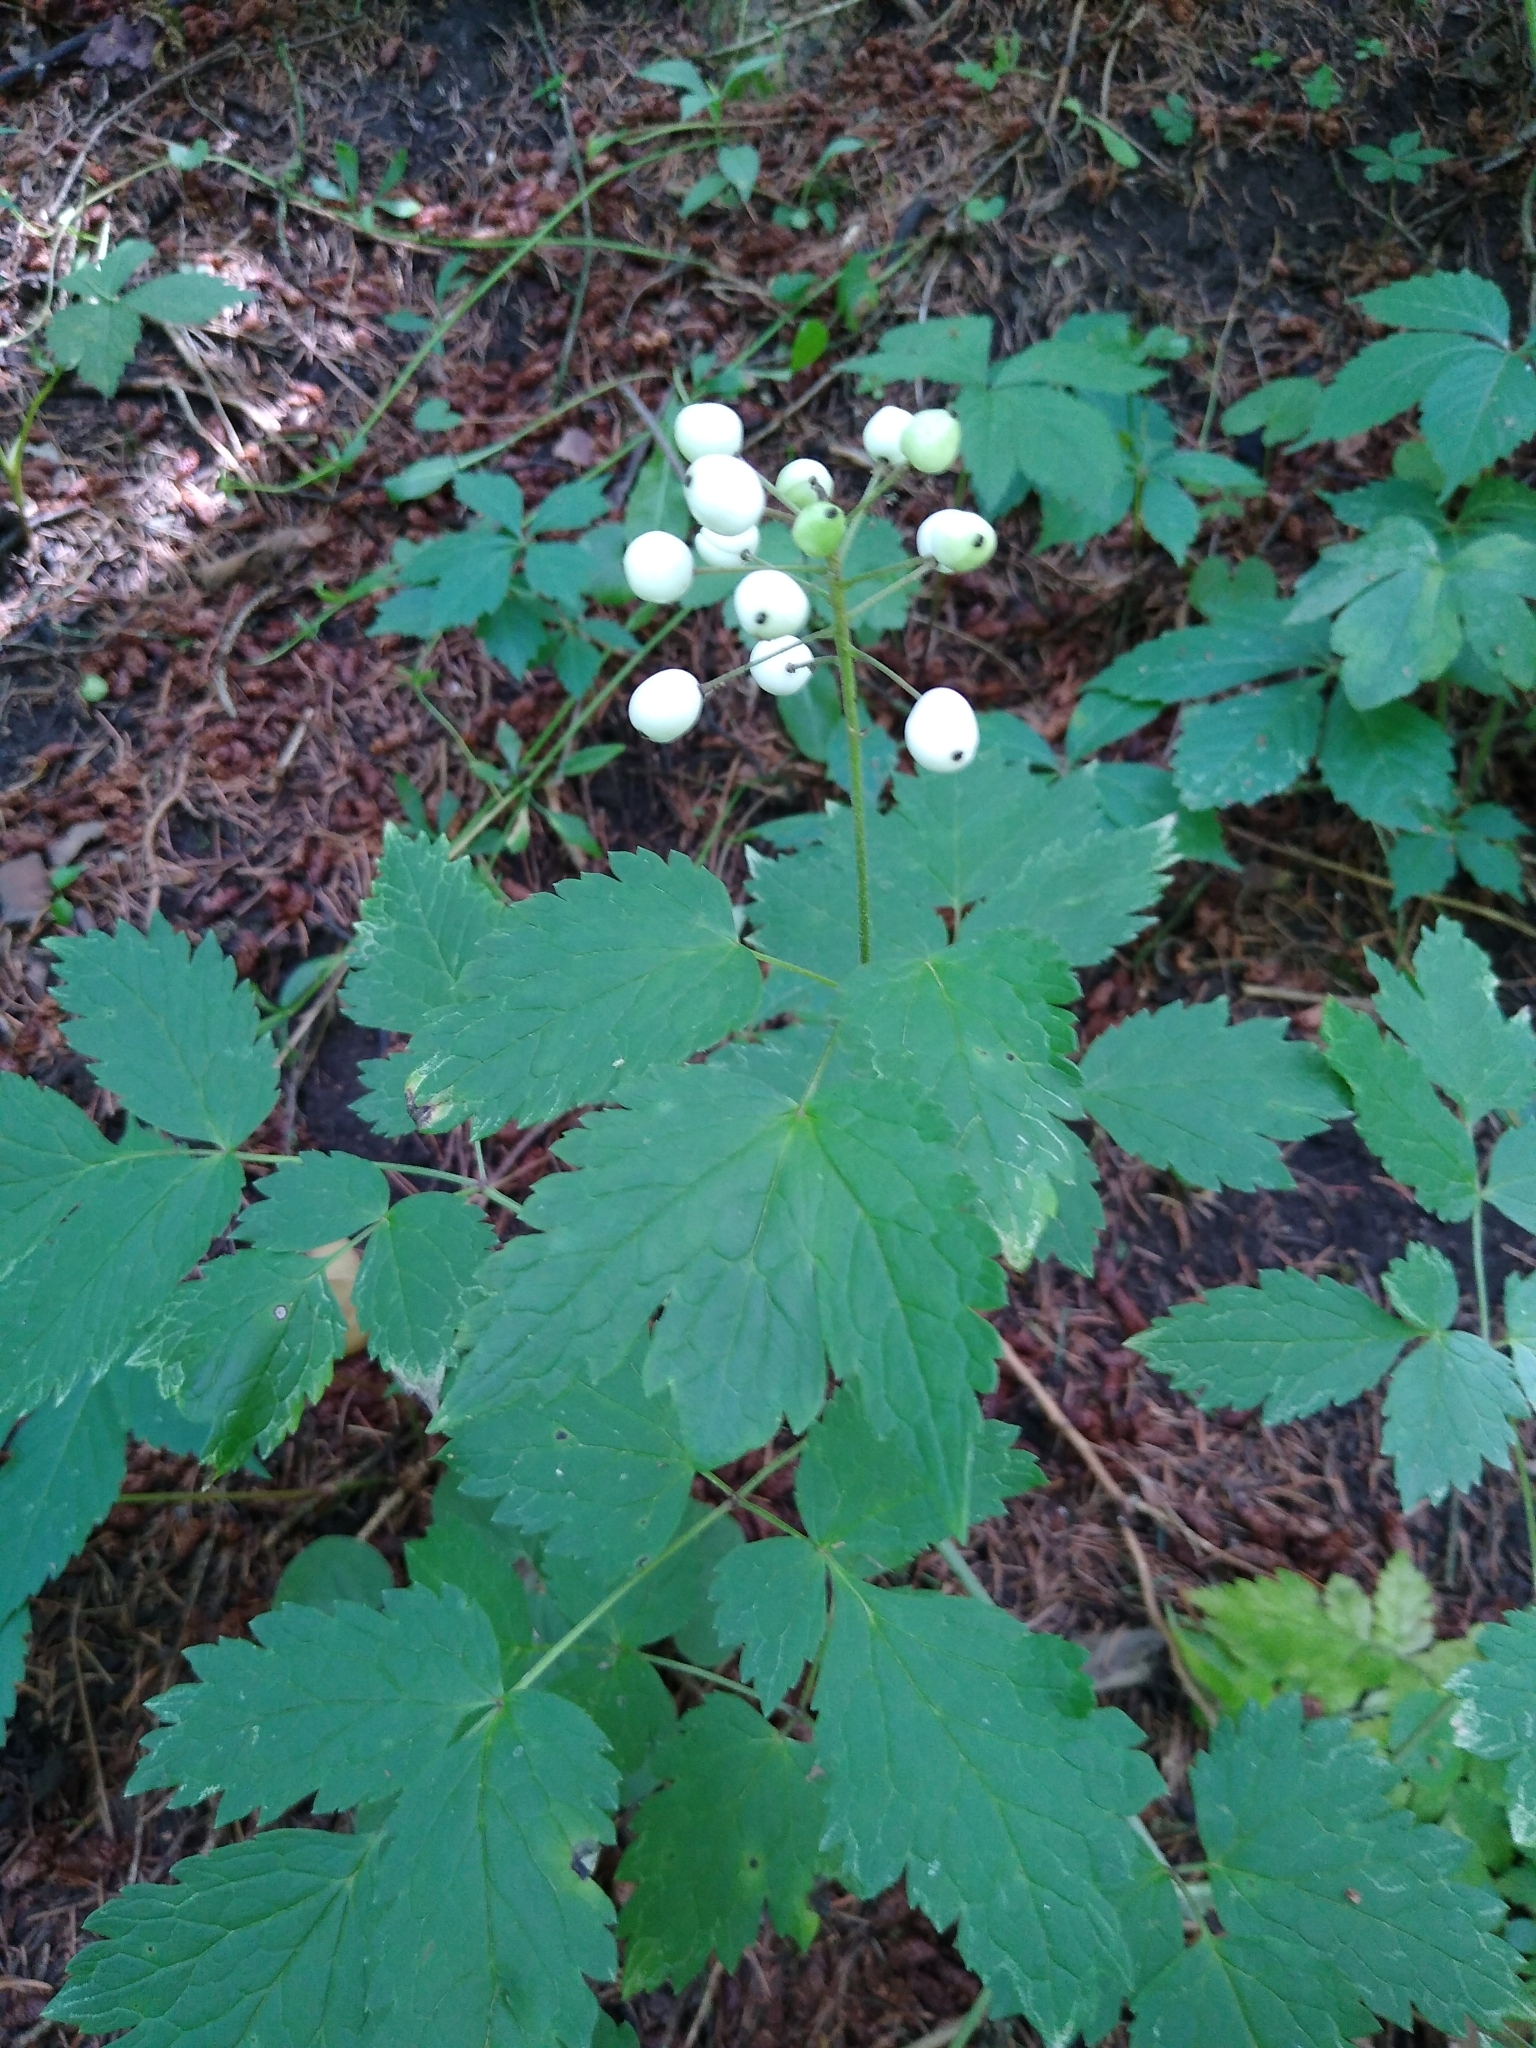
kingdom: Plantae
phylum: Tracheophyta
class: Magnoliopsida
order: Ranunculales
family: Ranunculaceae
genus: Actaea
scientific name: Actaea rubra
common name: Red baneberry
